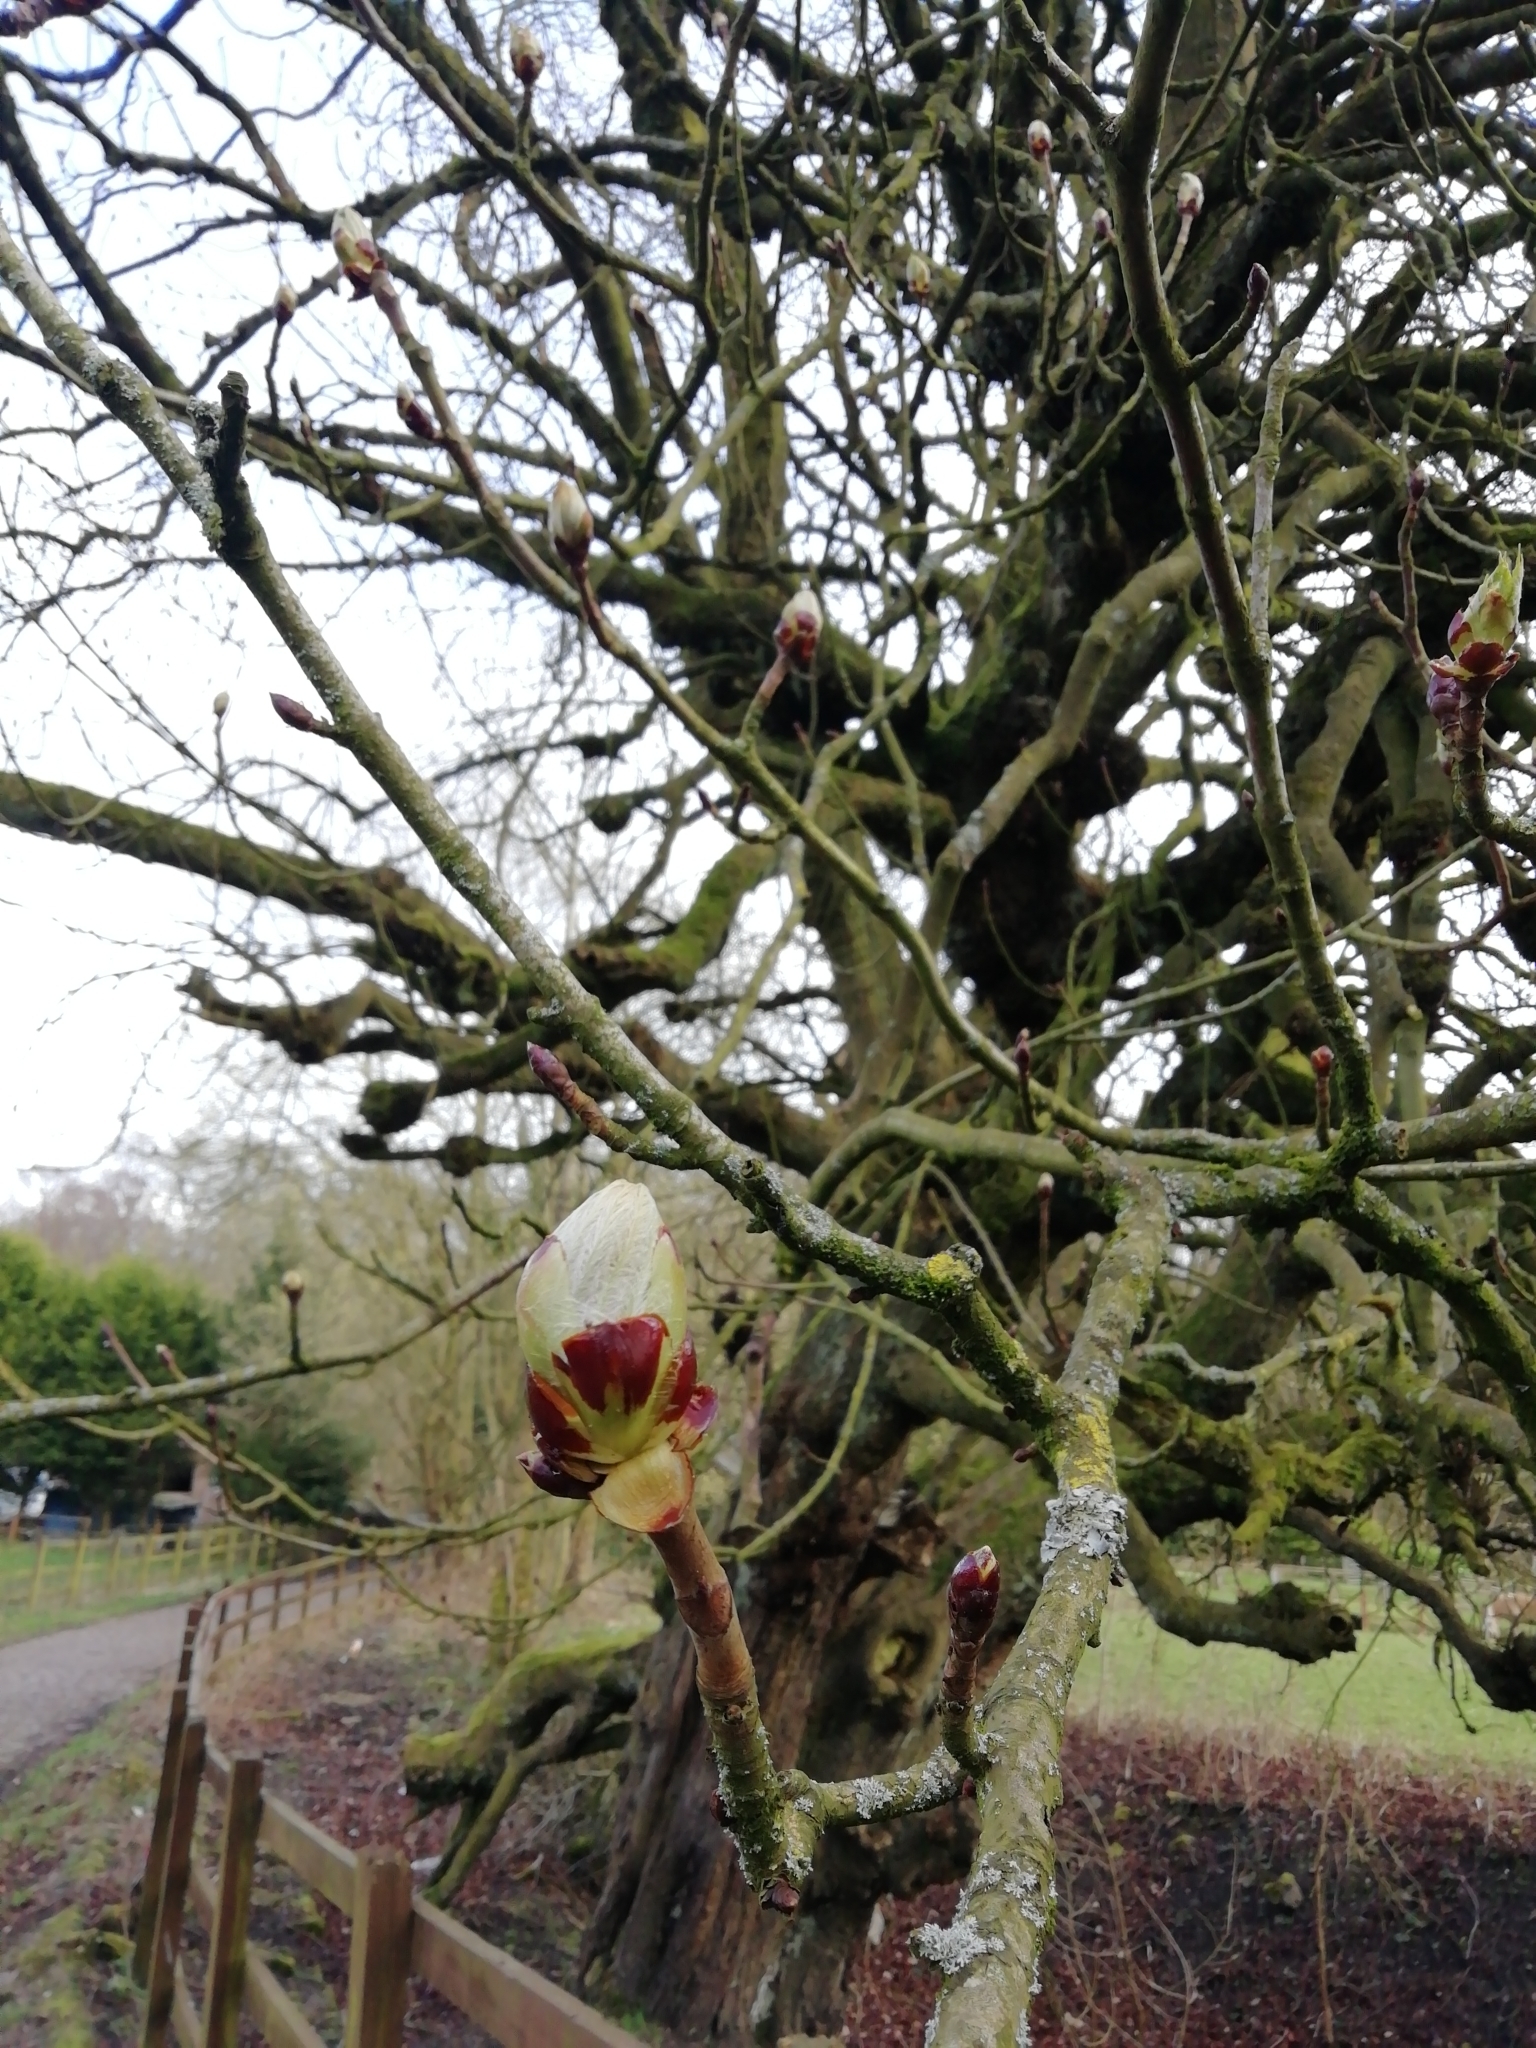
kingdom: Plantae
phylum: Tracheophyta
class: Magnoliopsida
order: Sapindales
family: Sapindaceae
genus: Aesculus
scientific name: Aesculus hippocastanum
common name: Horse-chestnut
